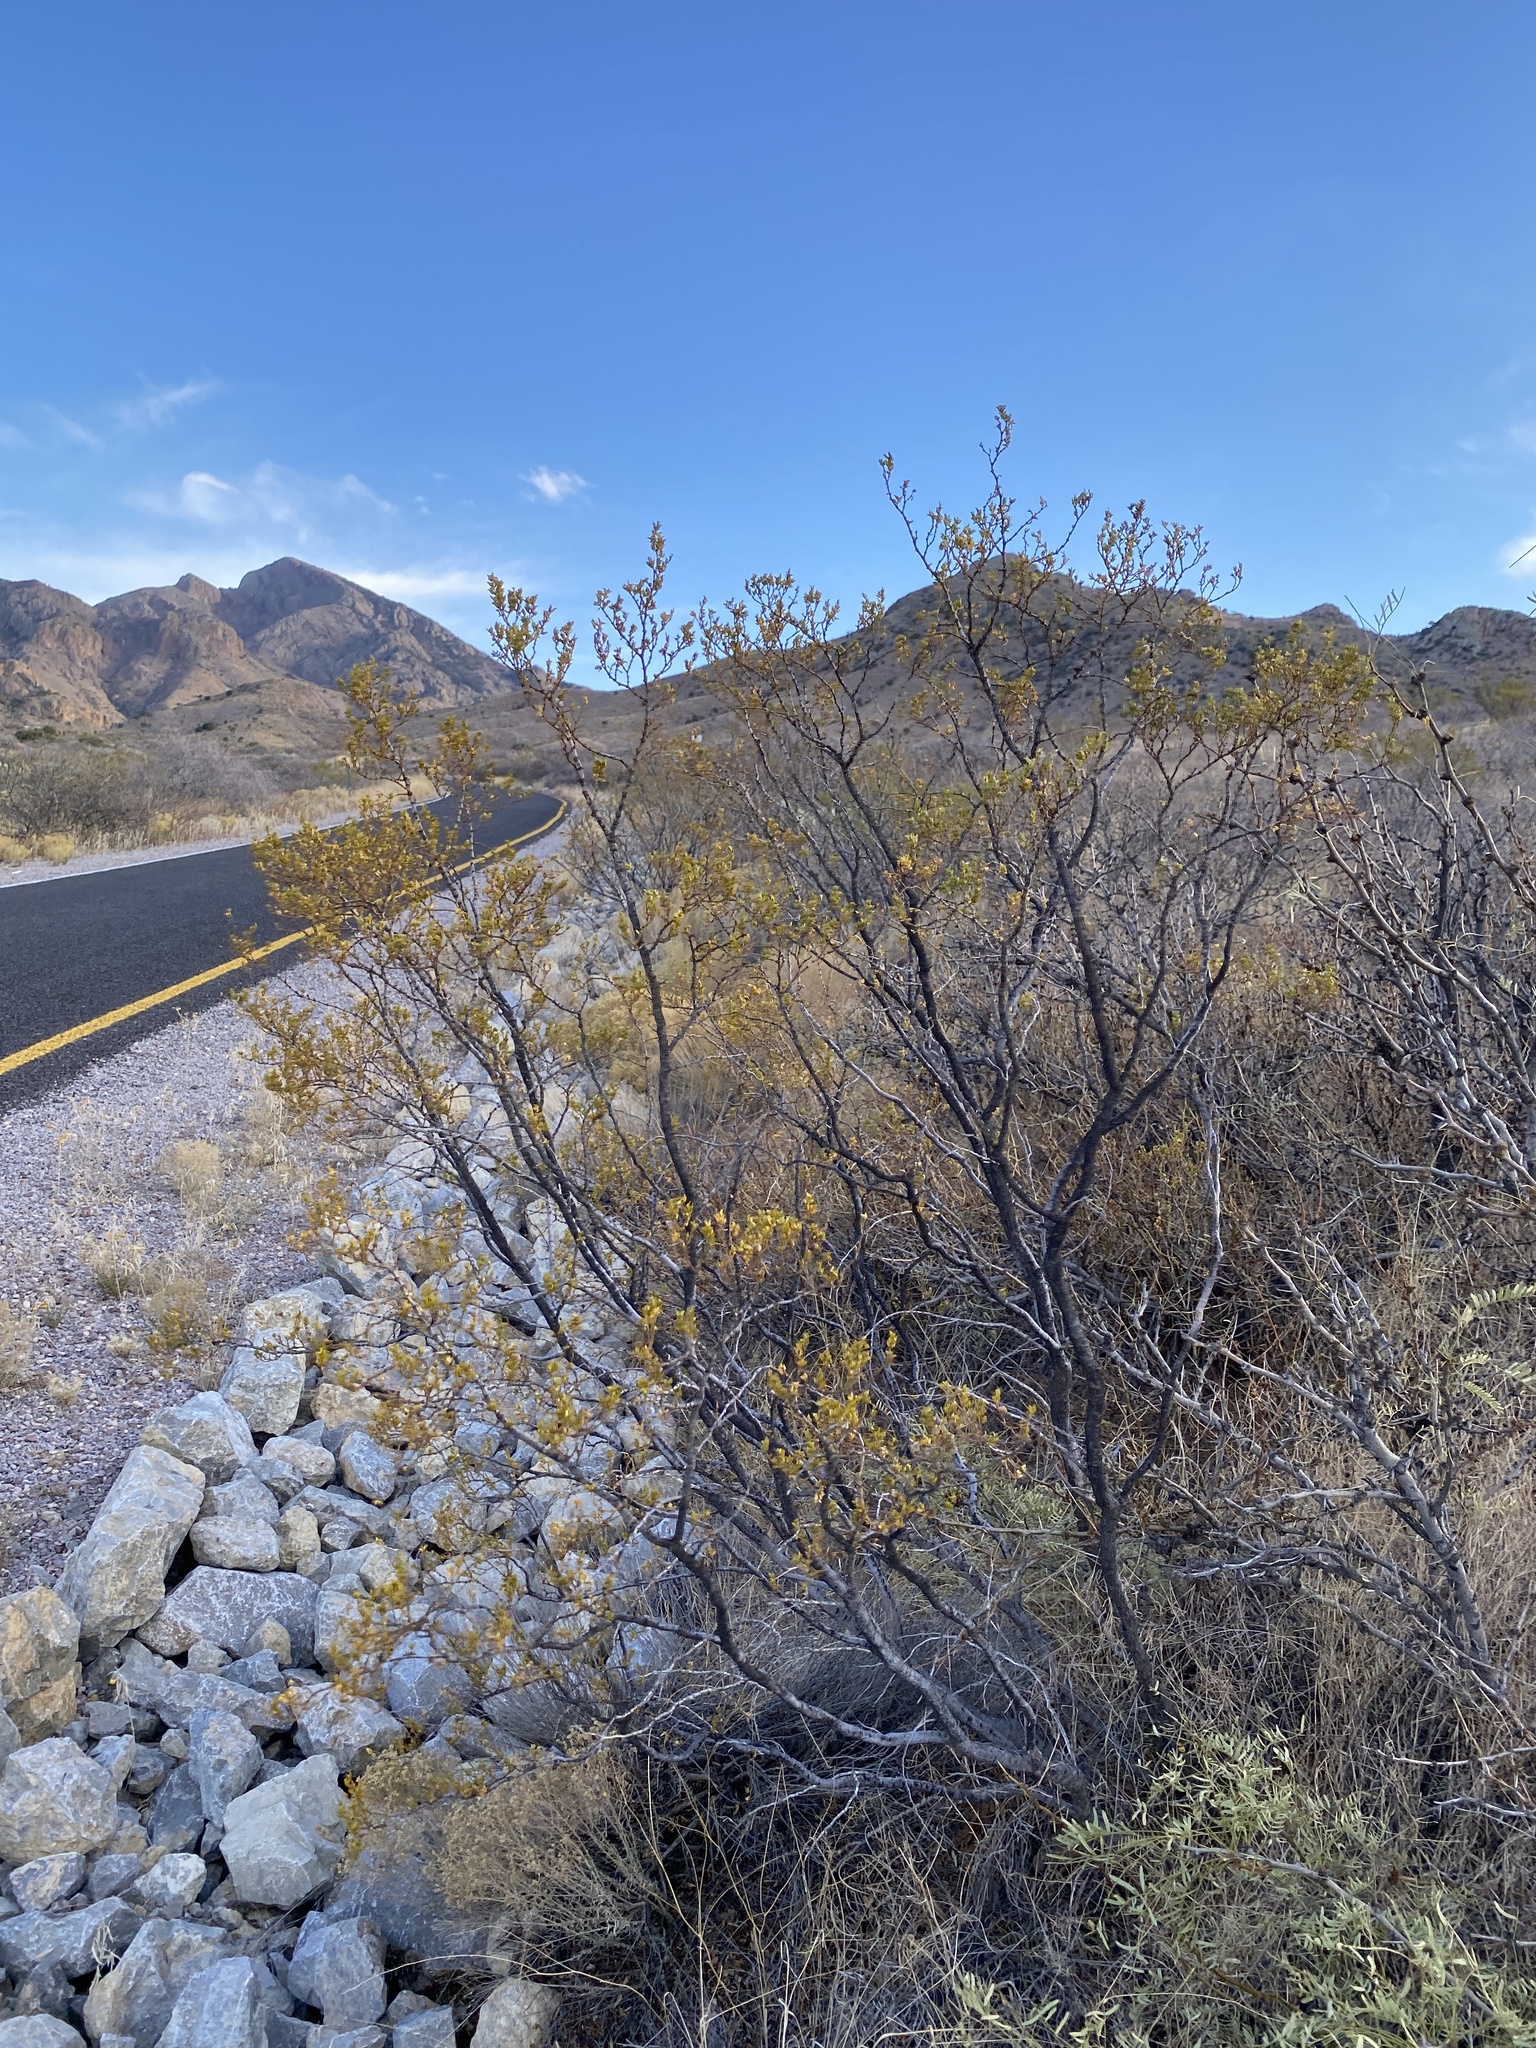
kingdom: Plantae
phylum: Tracheophyta
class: Magnoliopsida
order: Zygophyllales
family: Zygophyllaceae
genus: Larrea
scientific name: Larrea tridentata
